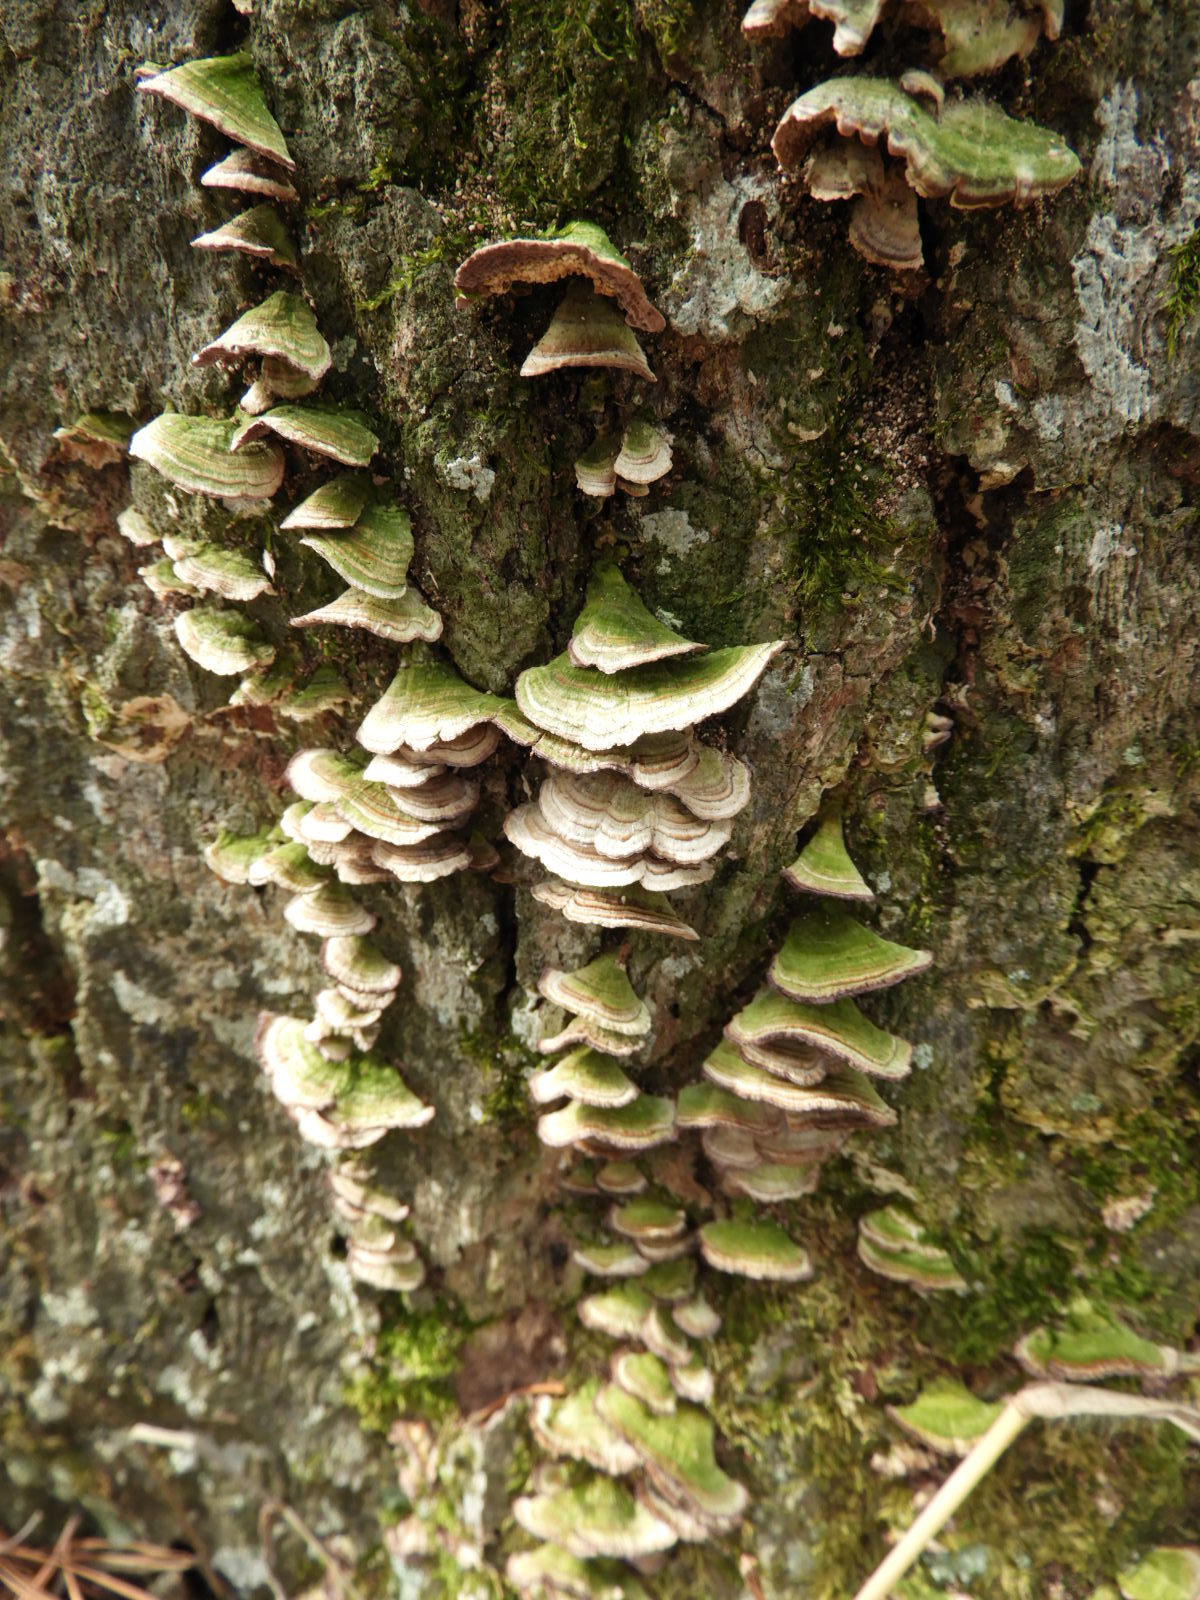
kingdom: Fungi
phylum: Basidiomycota
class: Agaricomycetes
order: Hymenochaetales
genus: Trichaptum
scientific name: Trichaptum biforme
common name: Violet-toothed polypore
